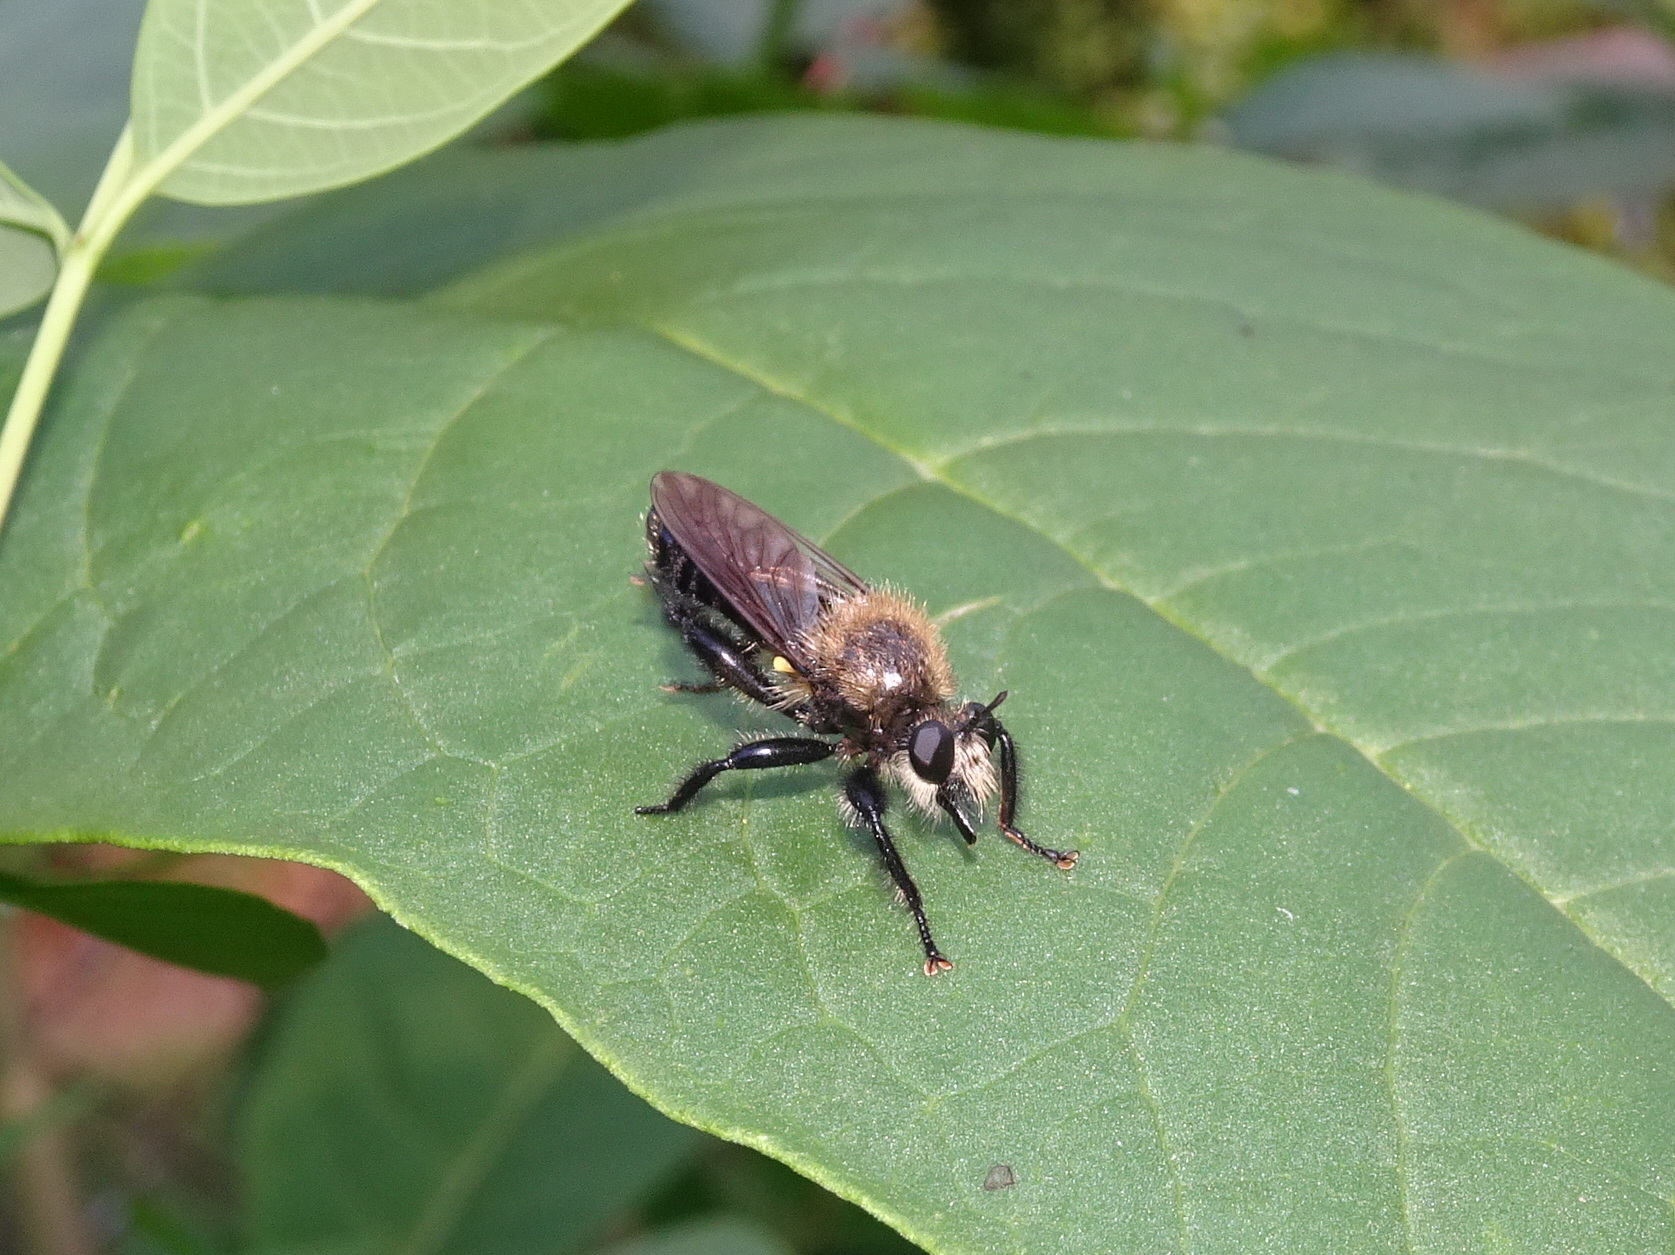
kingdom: Animalia
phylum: Arthropoda
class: Insecta
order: Diptera
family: Asilidae
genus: Laphria
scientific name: Laphria flavicollis
